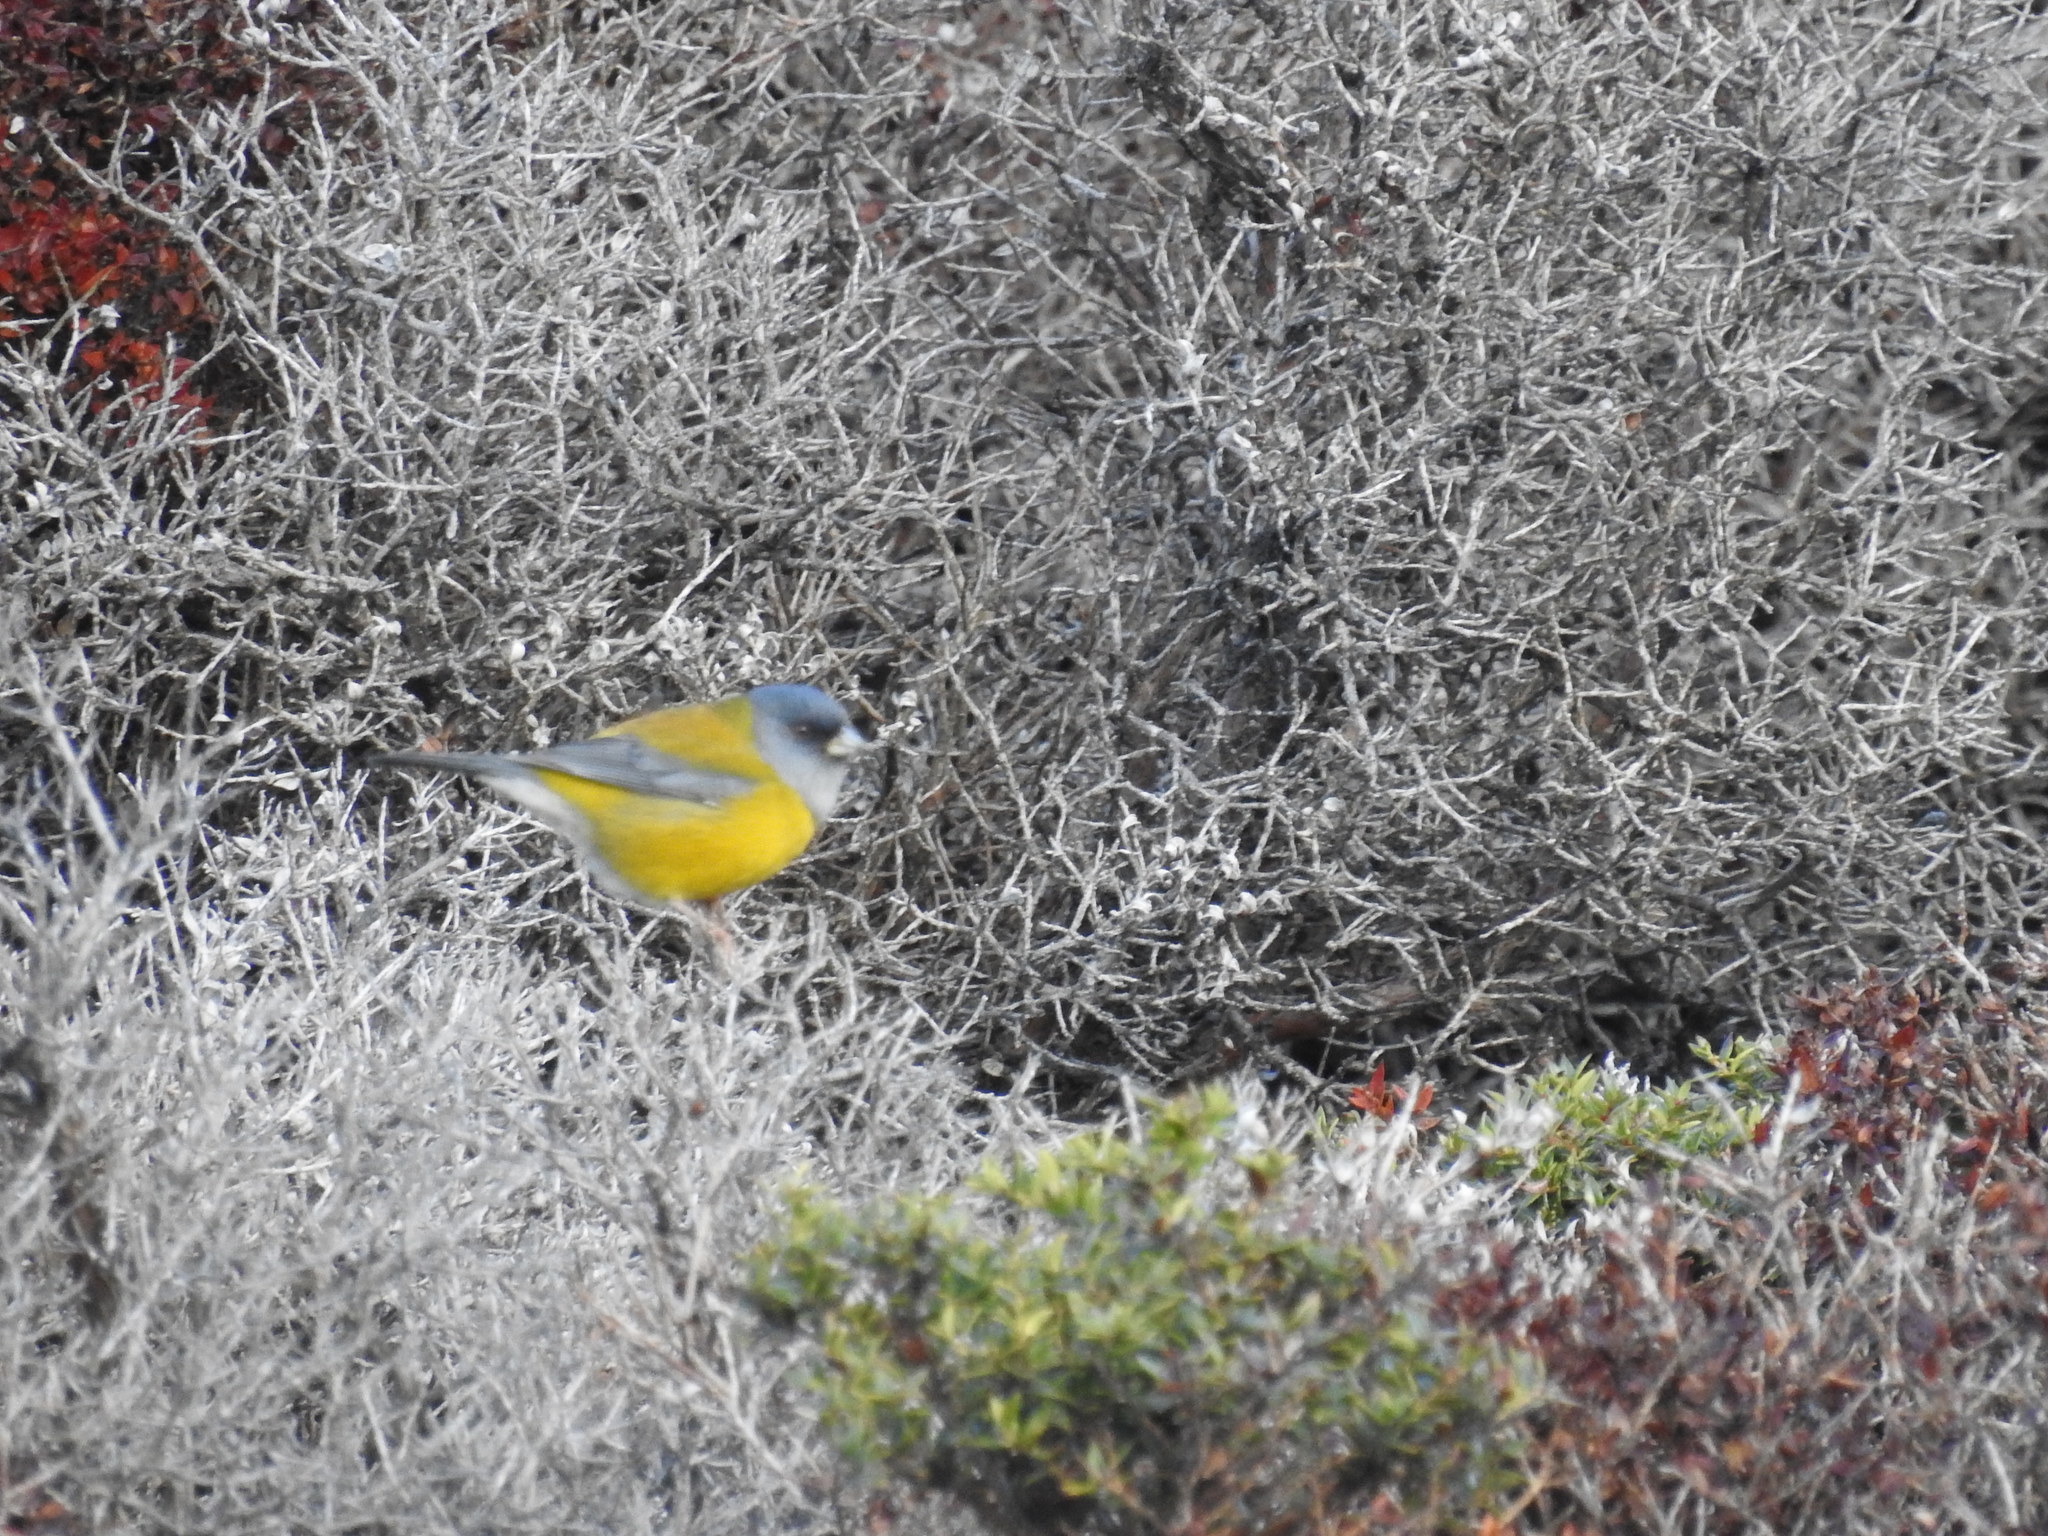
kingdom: Animalia
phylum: Chordata
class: Aves
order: Passeriformes
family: Thraupidae
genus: Phrygilus
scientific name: Phrygilus patagonicus
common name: Patagonian sierra finch
